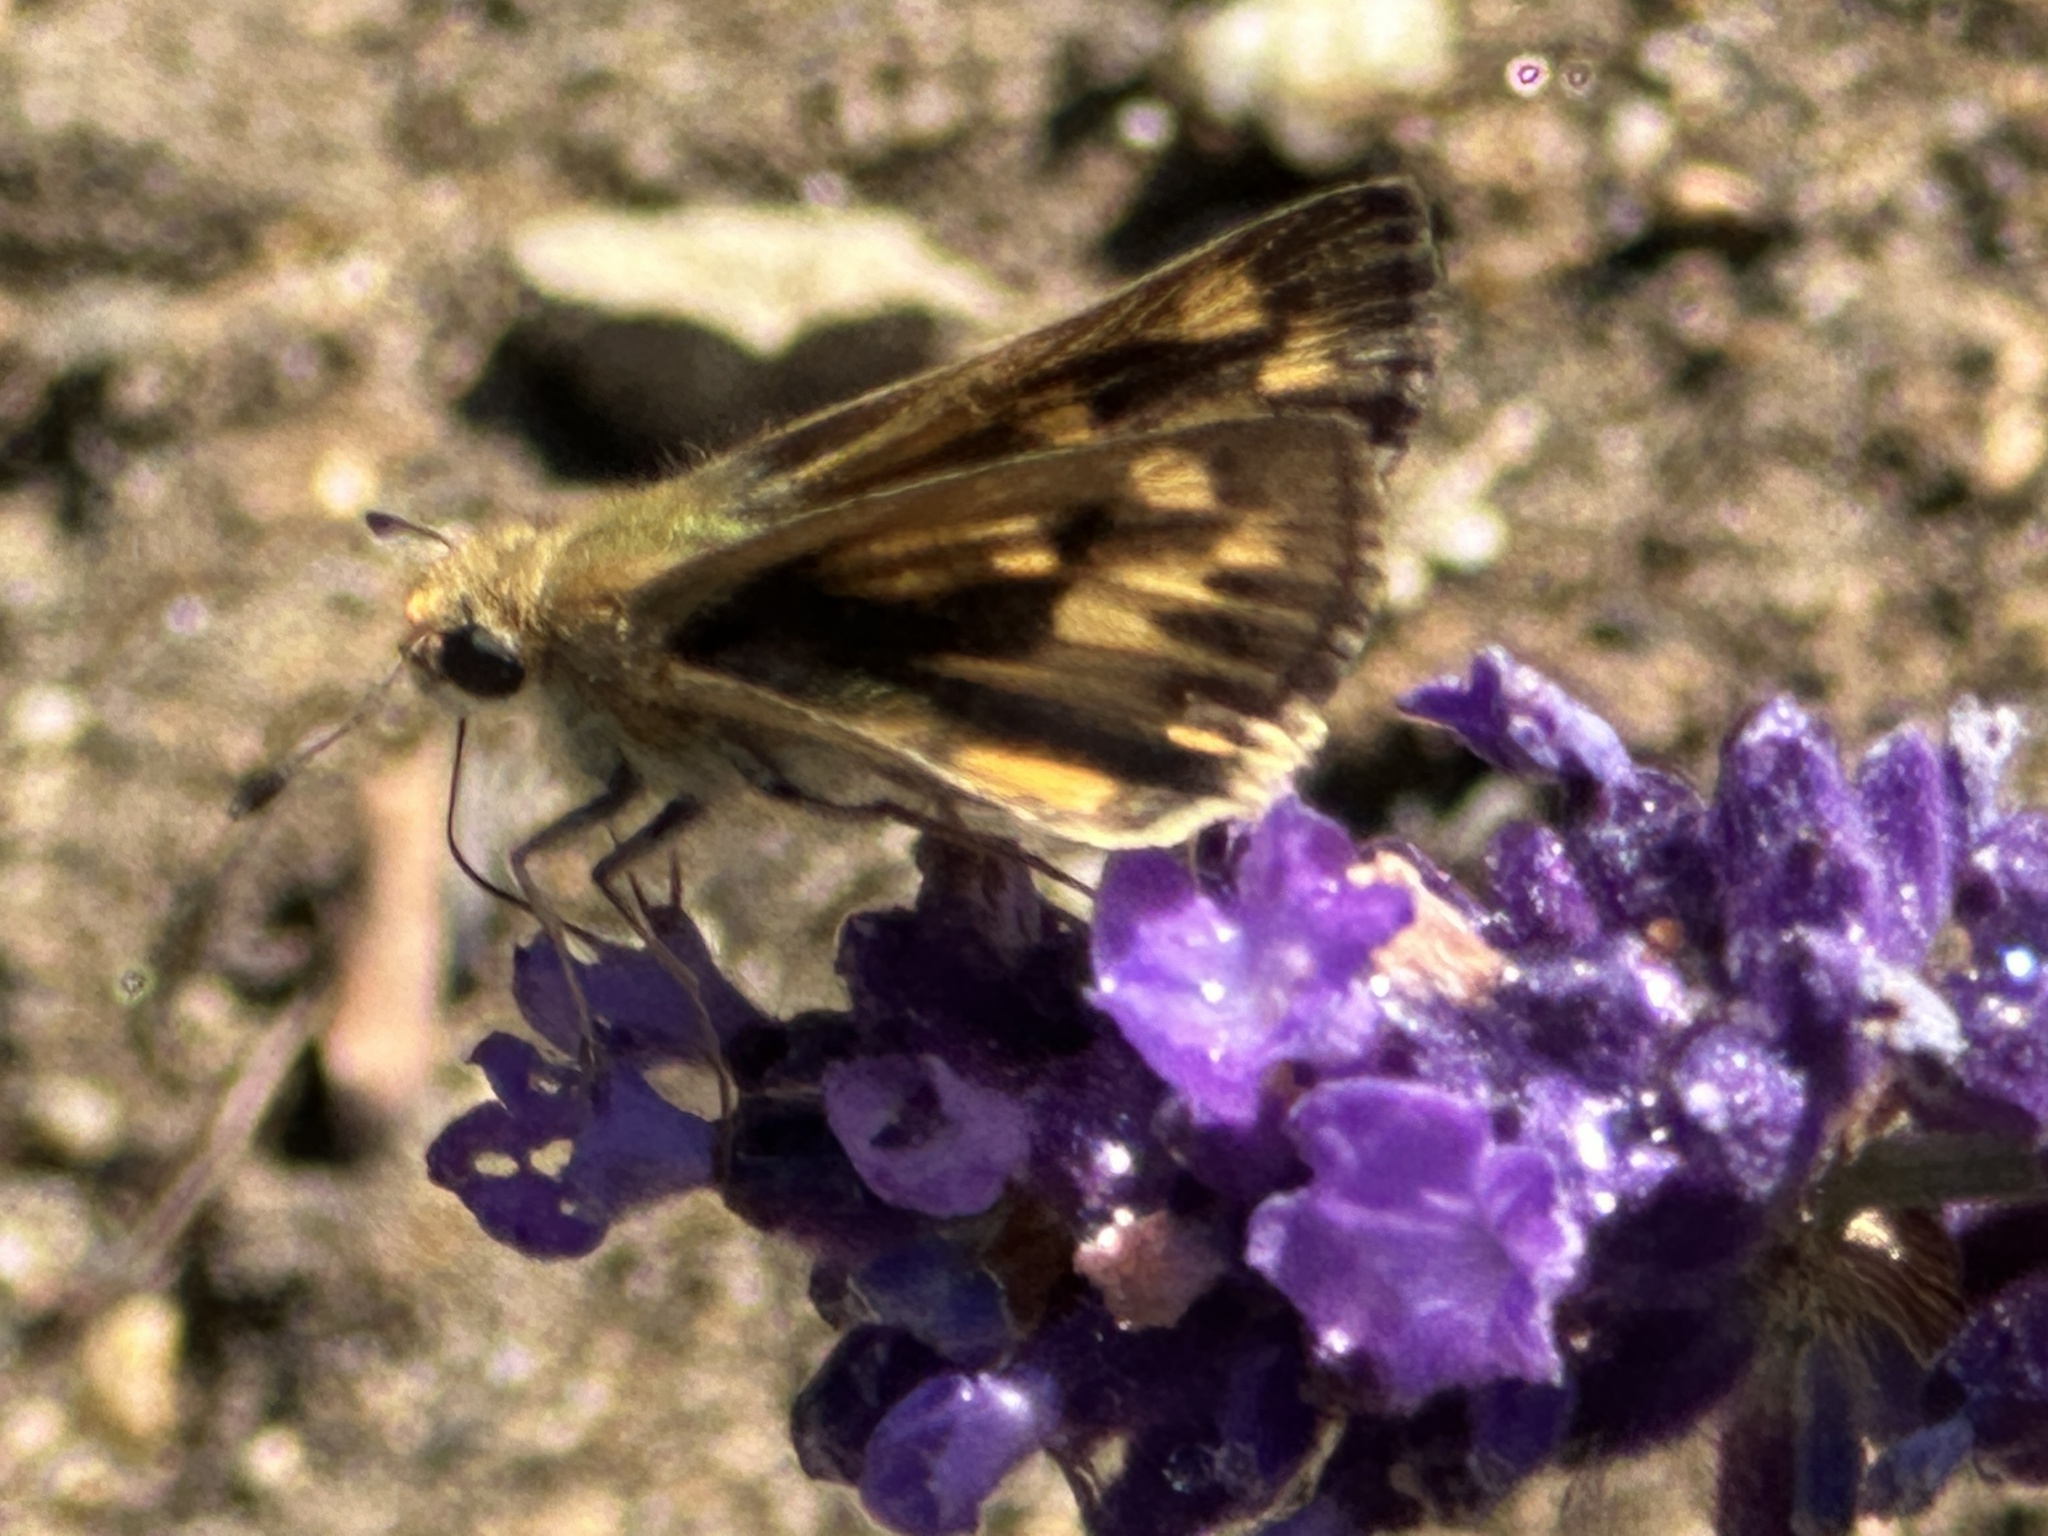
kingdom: Animalia
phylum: Arthropoda
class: Insecta
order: Lepidoptera
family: Hesperiidae
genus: Hylephila
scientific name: Hylephila phyleus
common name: Fiery skipper
